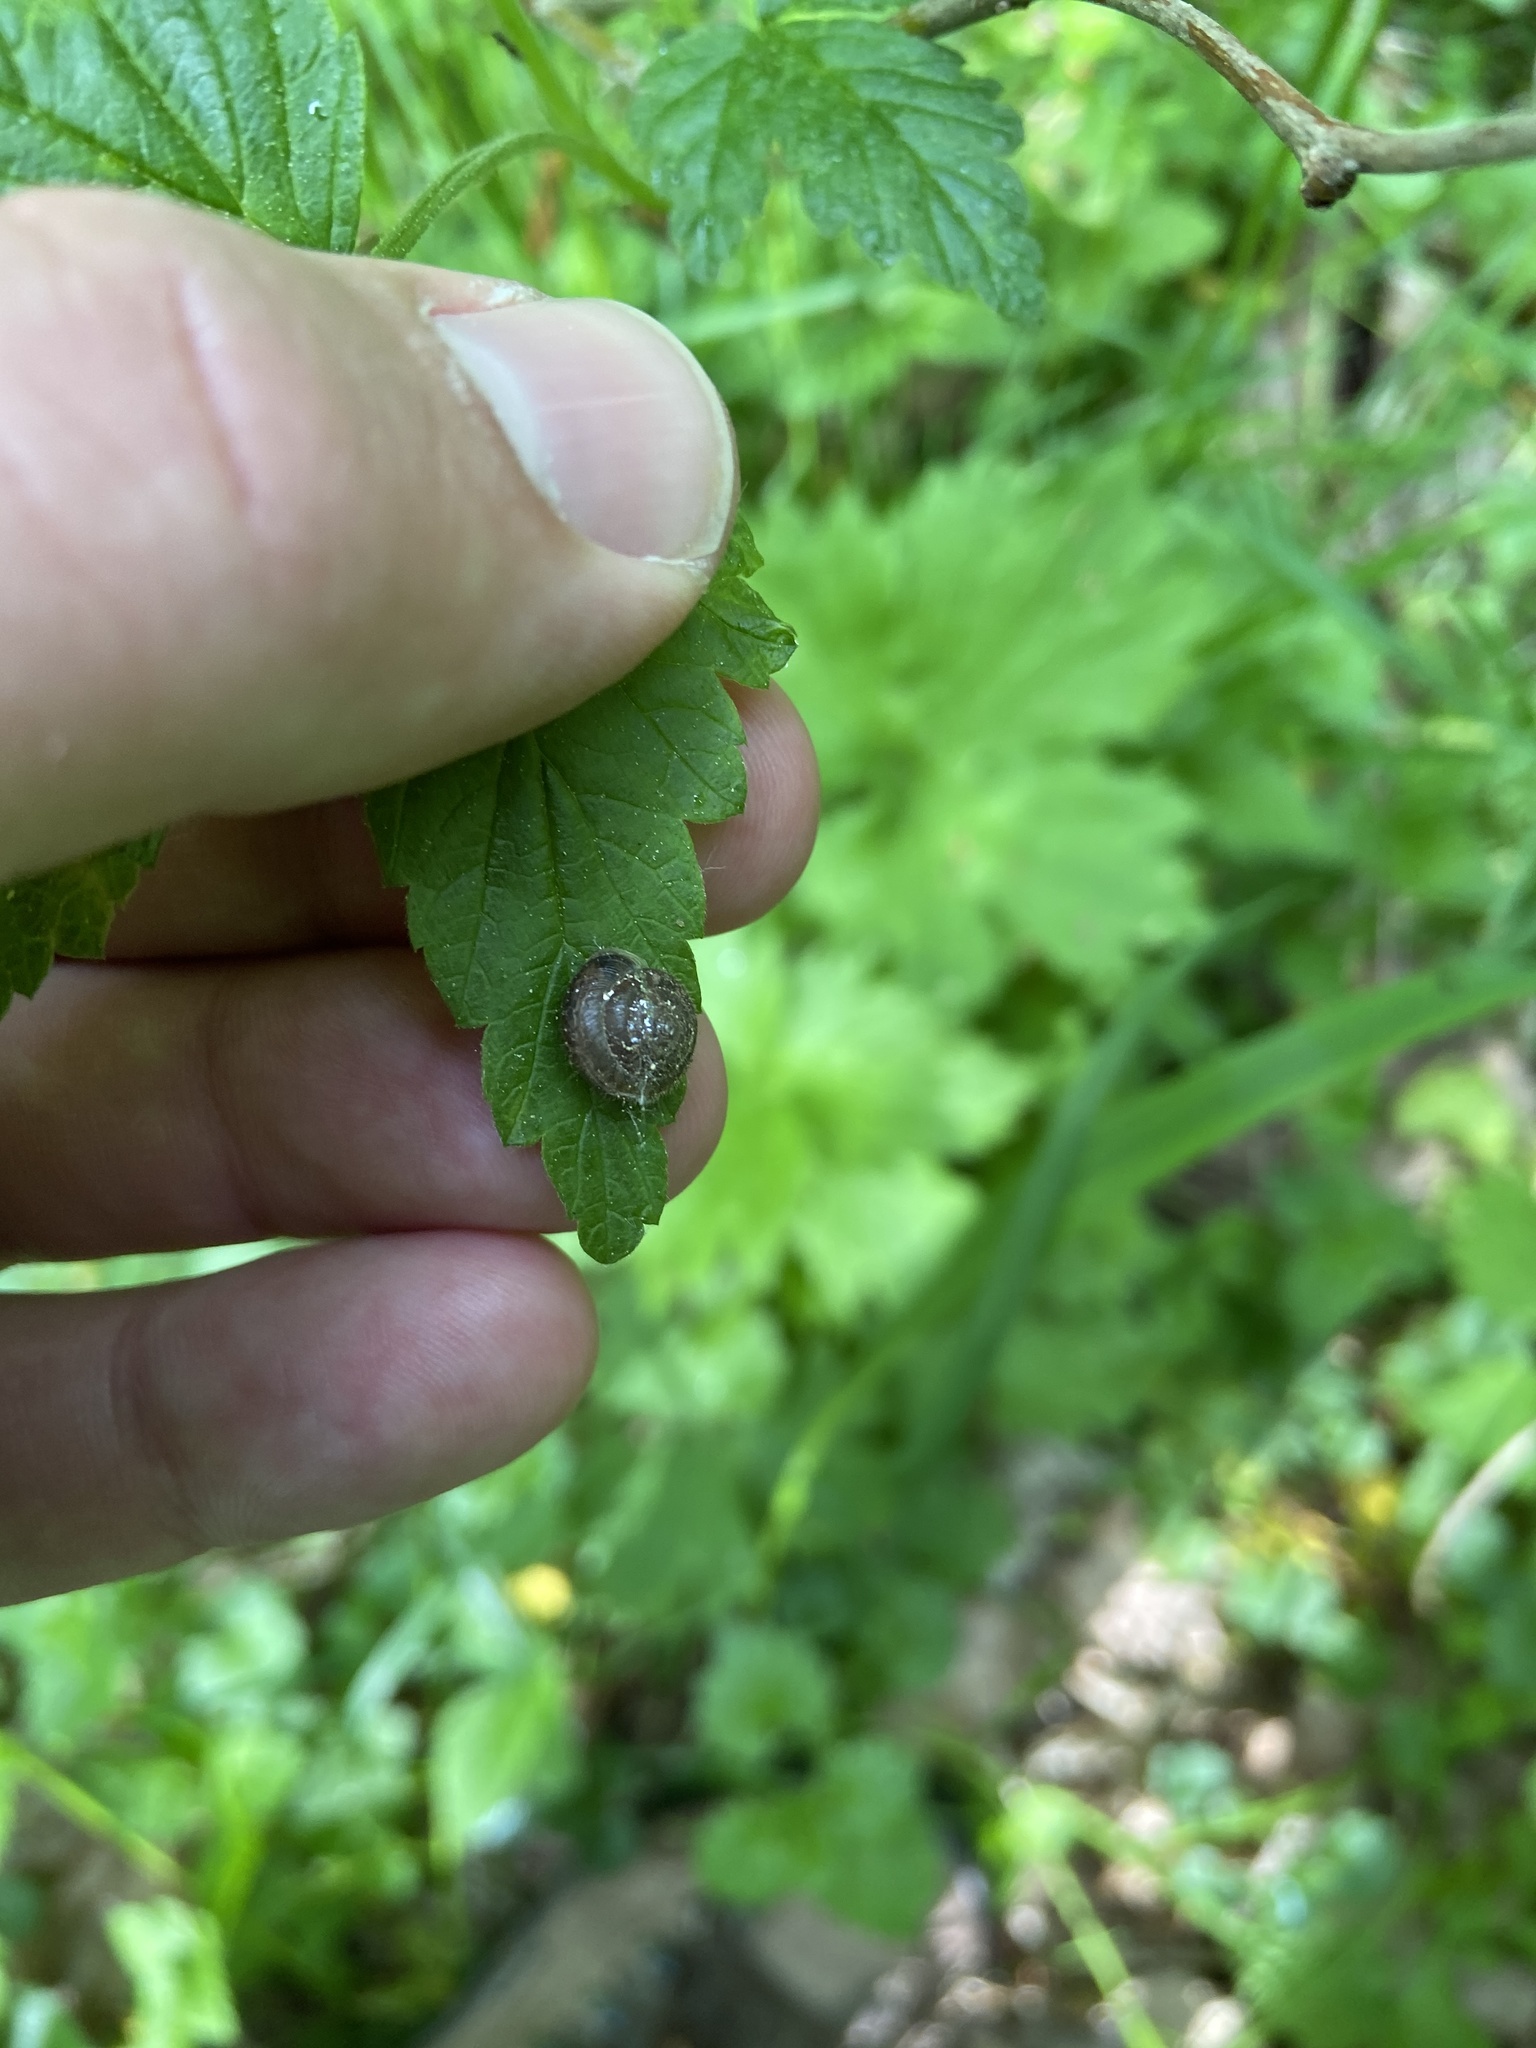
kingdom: Animalia
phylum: Mollusca
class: Gastropoda
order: Stylommatophora
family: Hygromiidae
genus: Trochulus
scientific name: Trochulus hispidus
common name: Hairy snail
